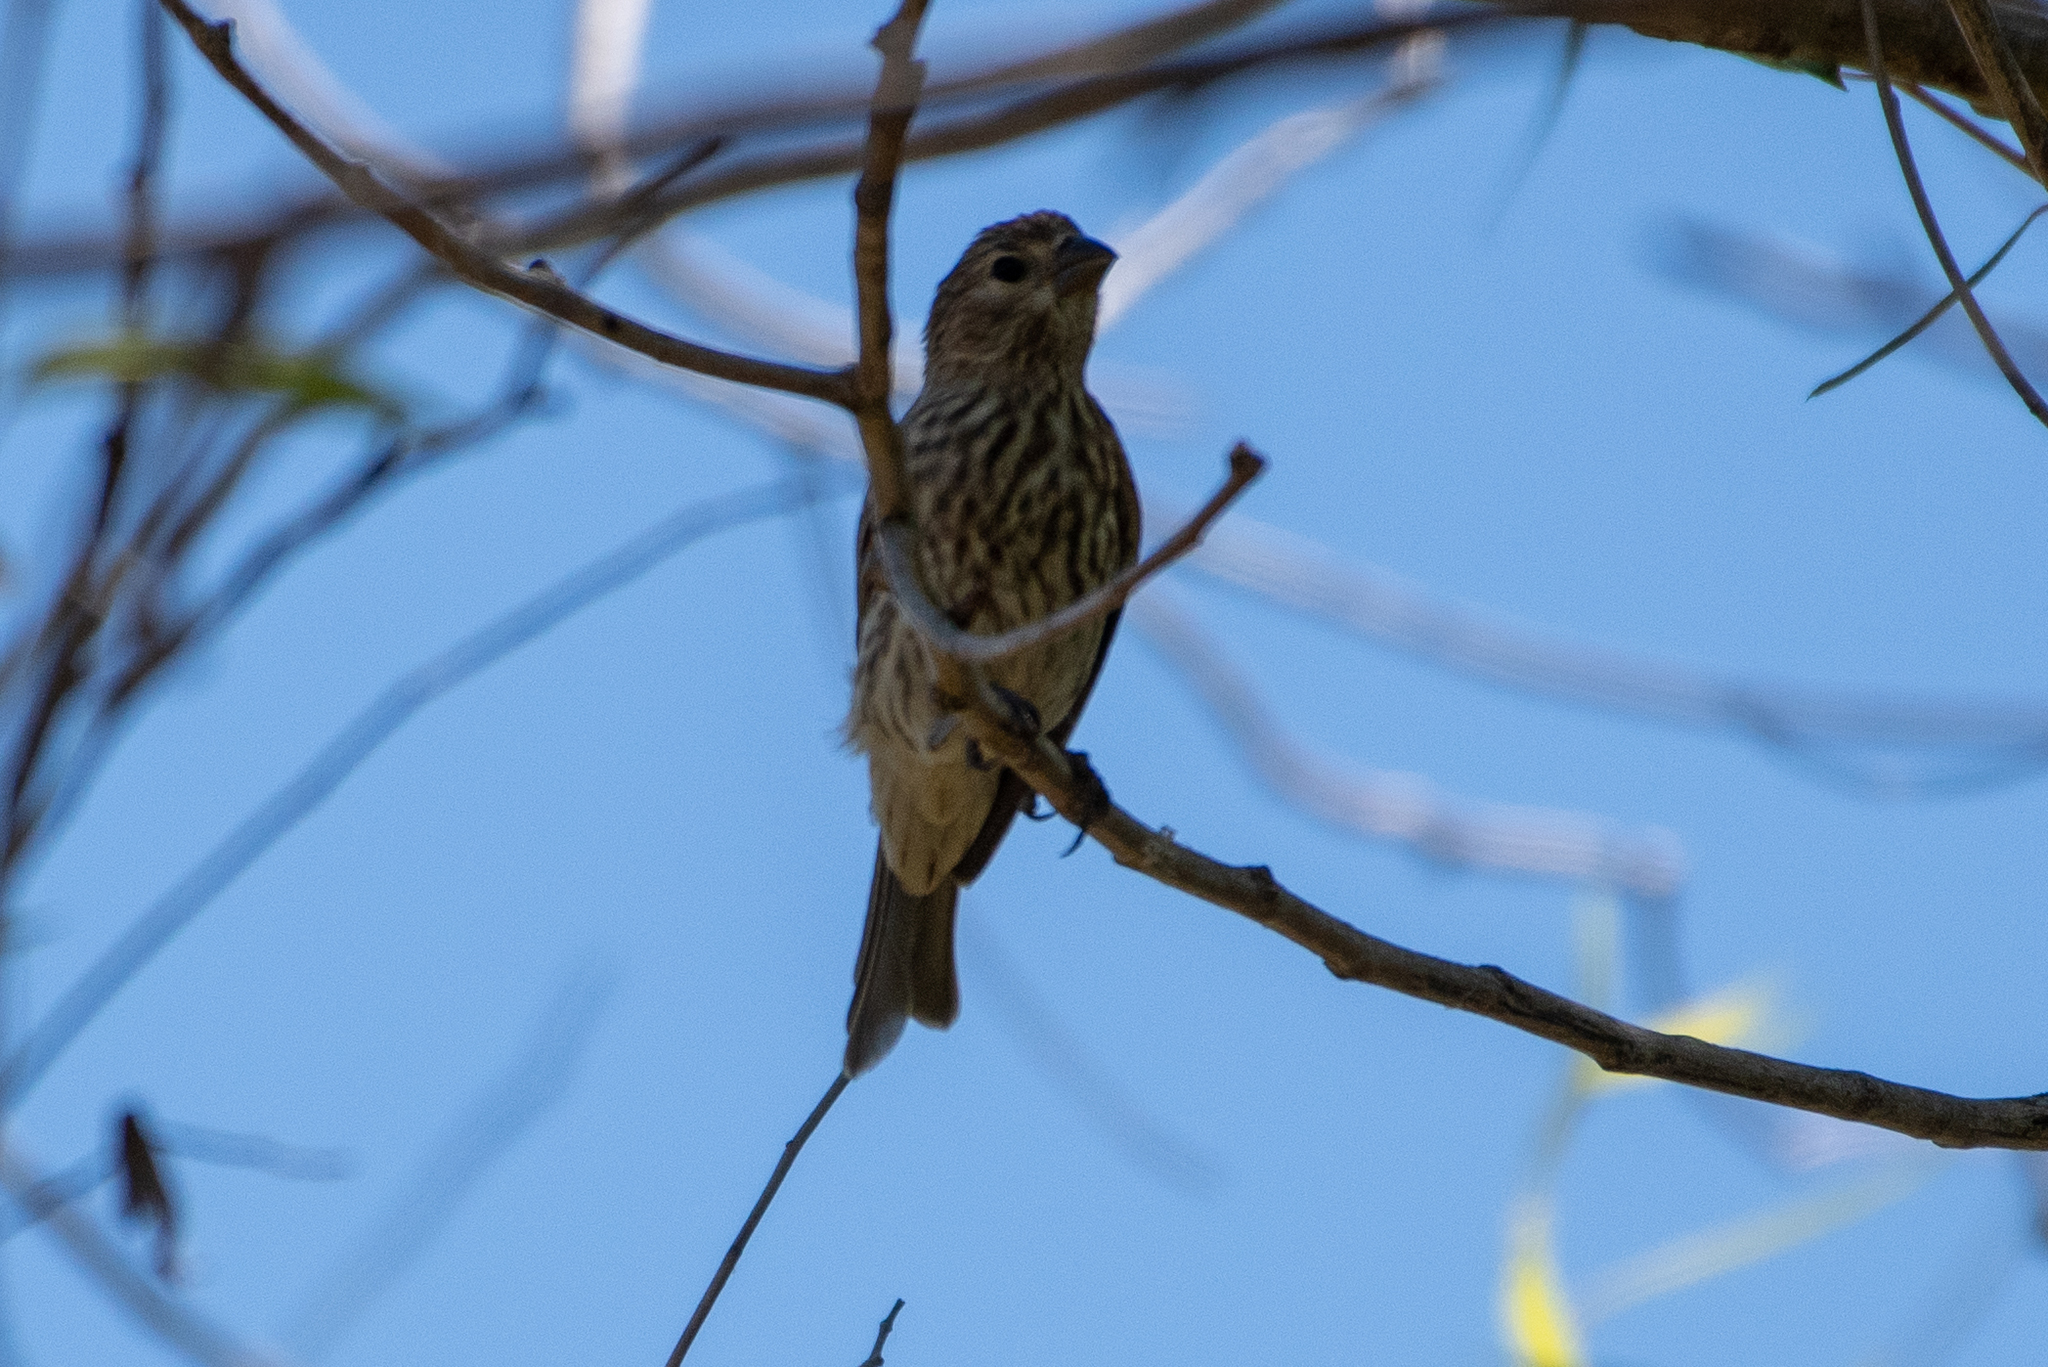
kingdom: Animalia
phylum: Chordata
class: Aves
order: Passeriformes
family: Fringillidae
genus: Haemorhous
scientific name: Haemorhous mexicanus
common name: House finch
